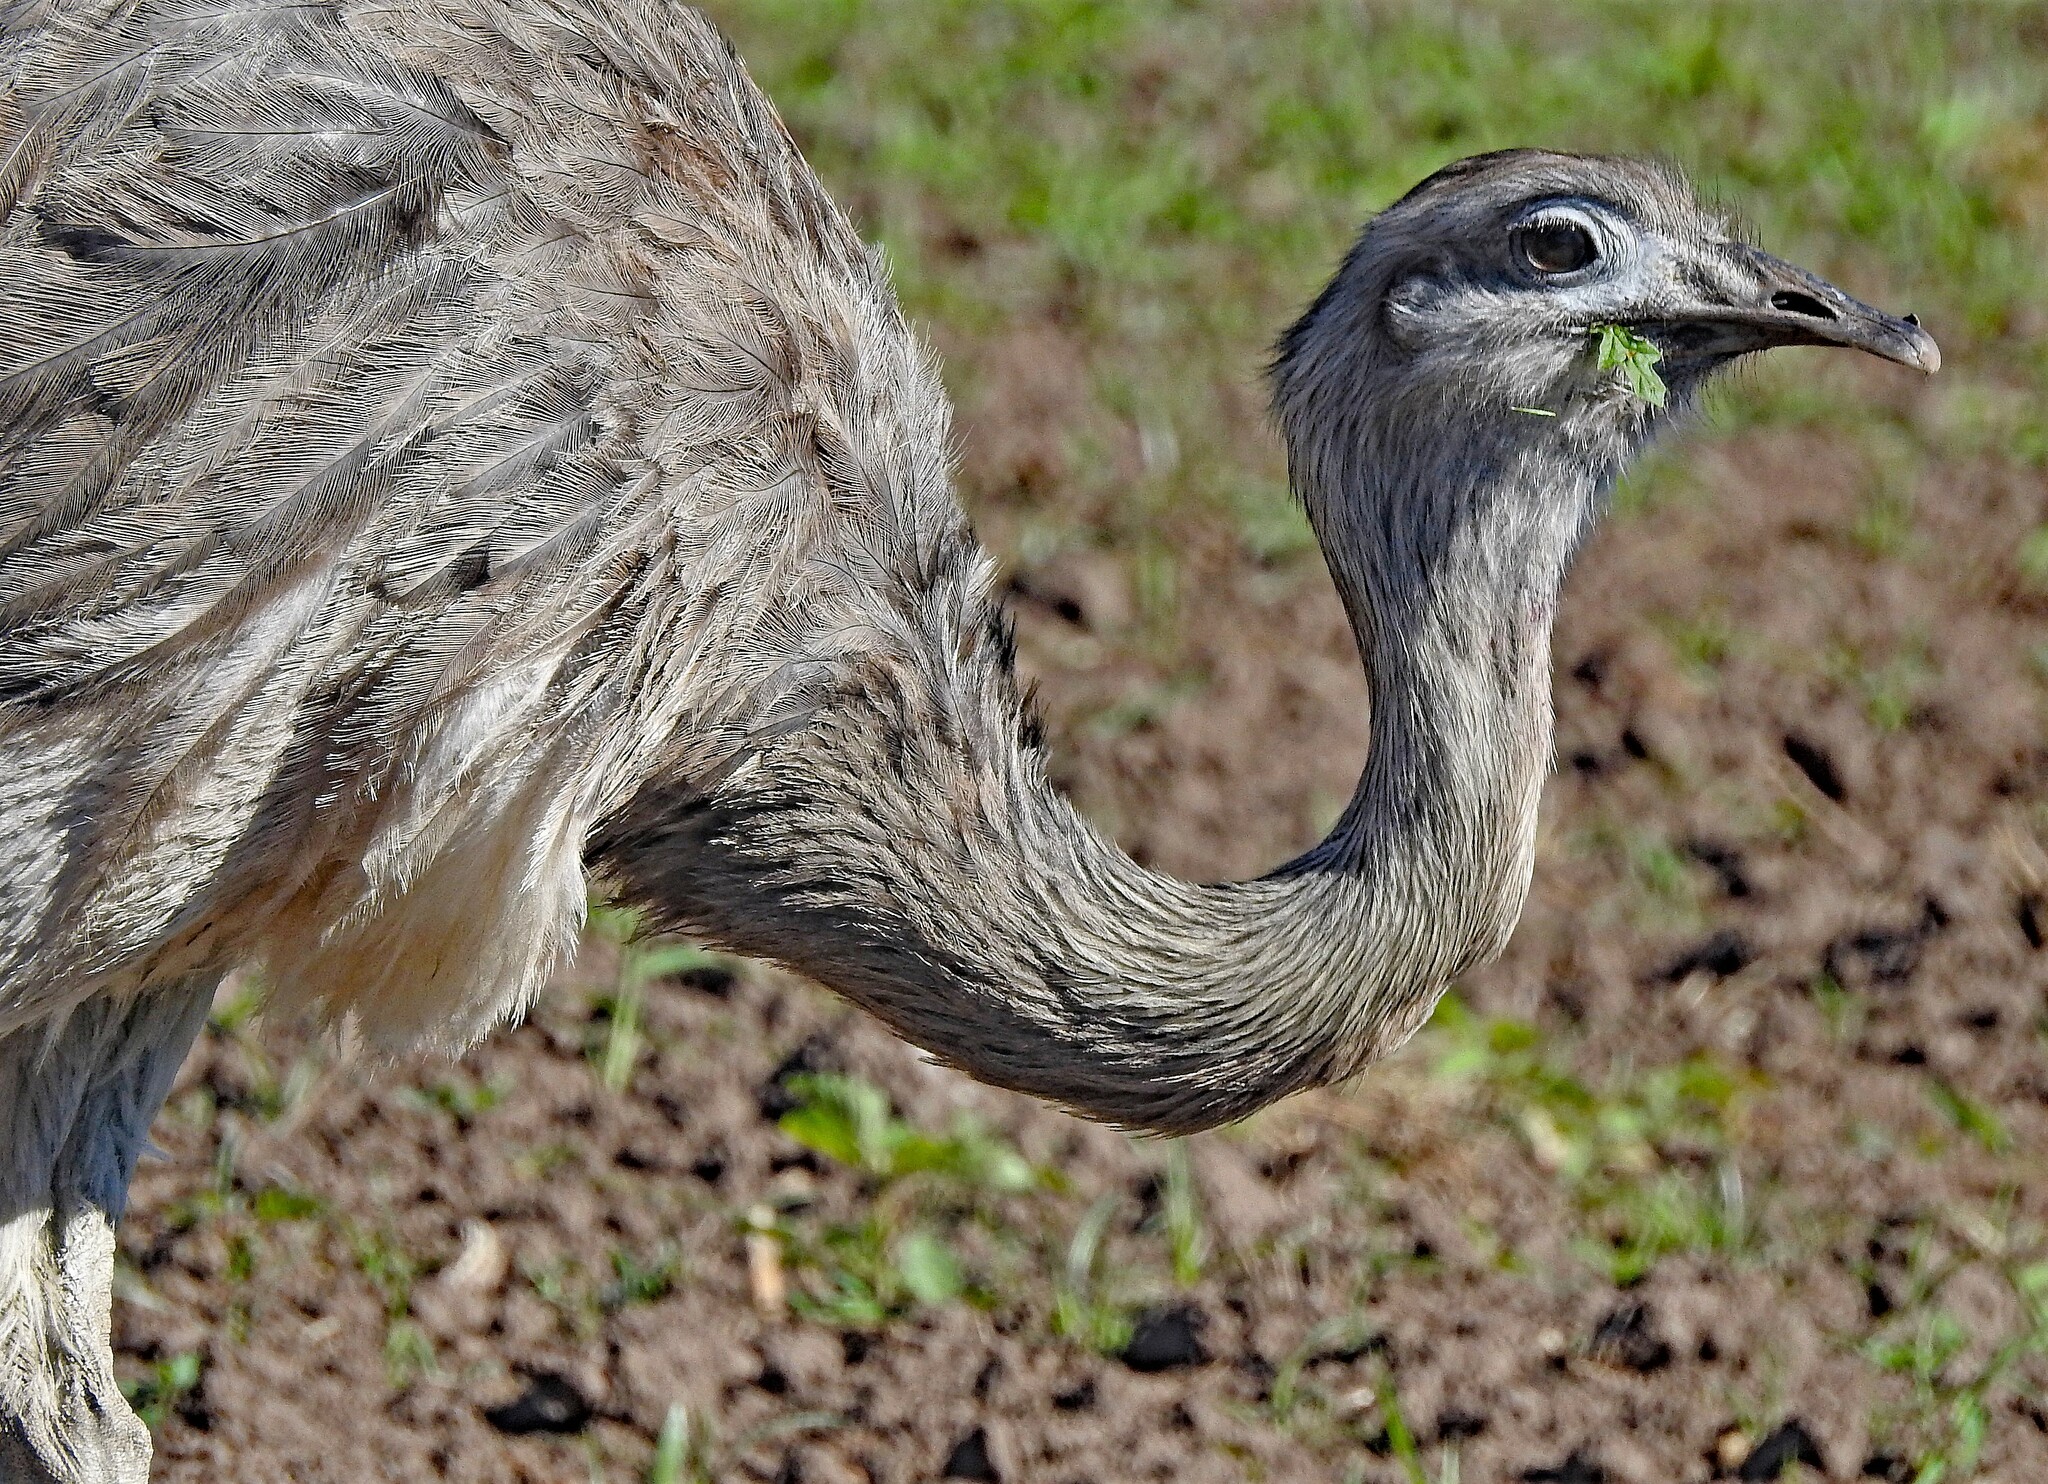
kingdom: Animalia
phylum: Chordata
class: Aves
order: Rheiformes
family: Rheidae
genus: Rhea
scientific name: Rhea americana
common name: Greater rhea
